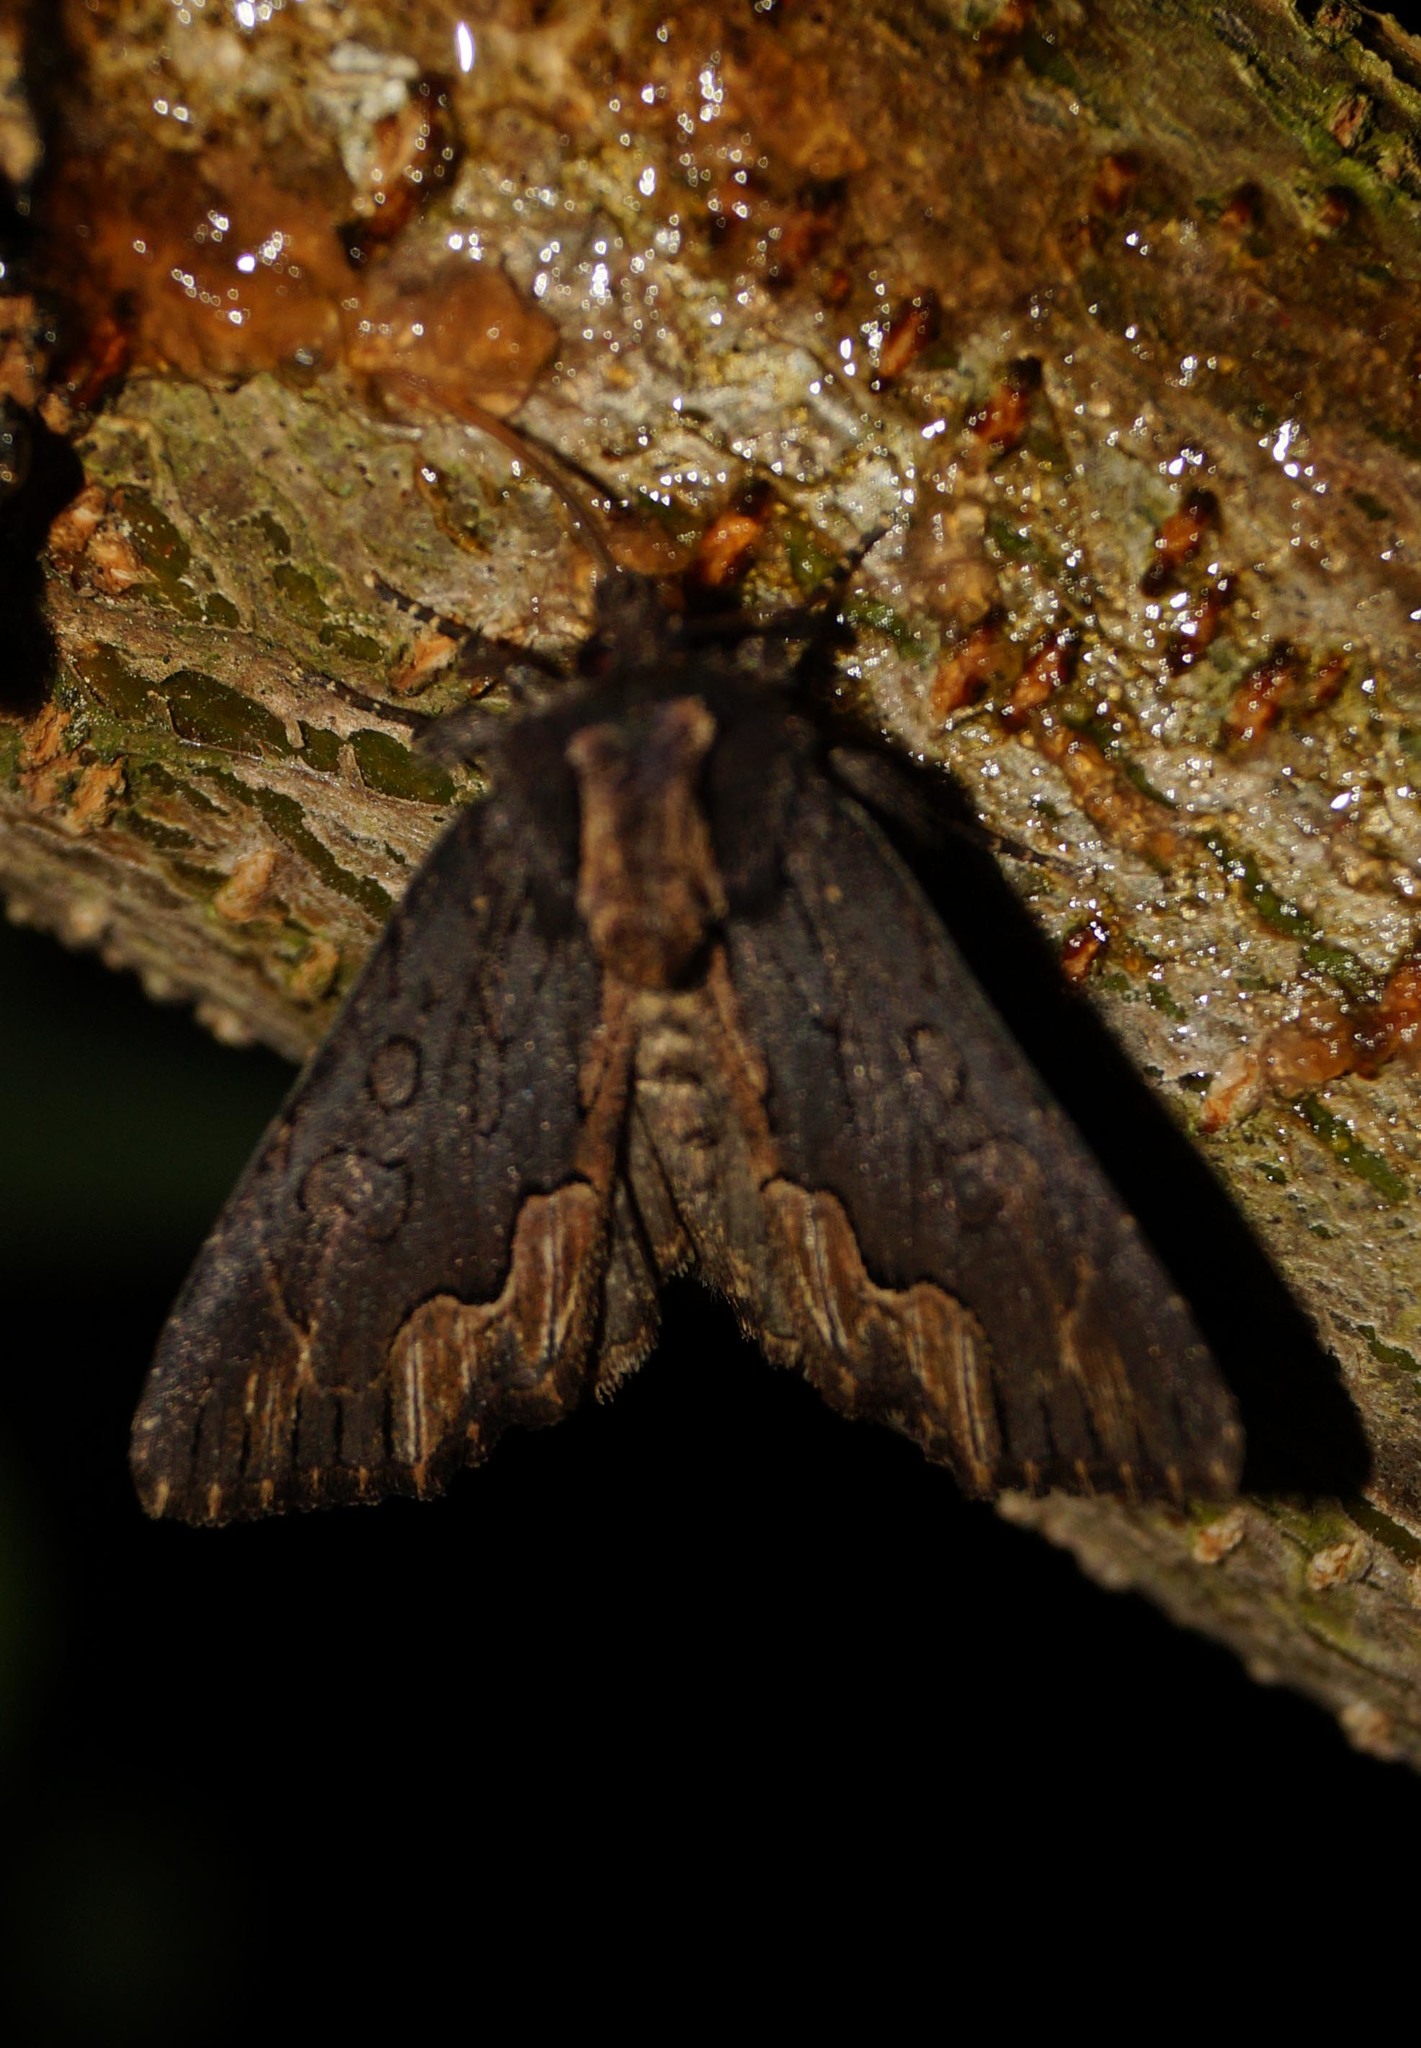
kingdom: Animalia
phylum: Arthropoda
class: Insecta
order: Lepidoptera
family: Noctuidae
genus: Dypterygia
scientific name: Dypterygia scabriuscula
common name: Bird's wing
